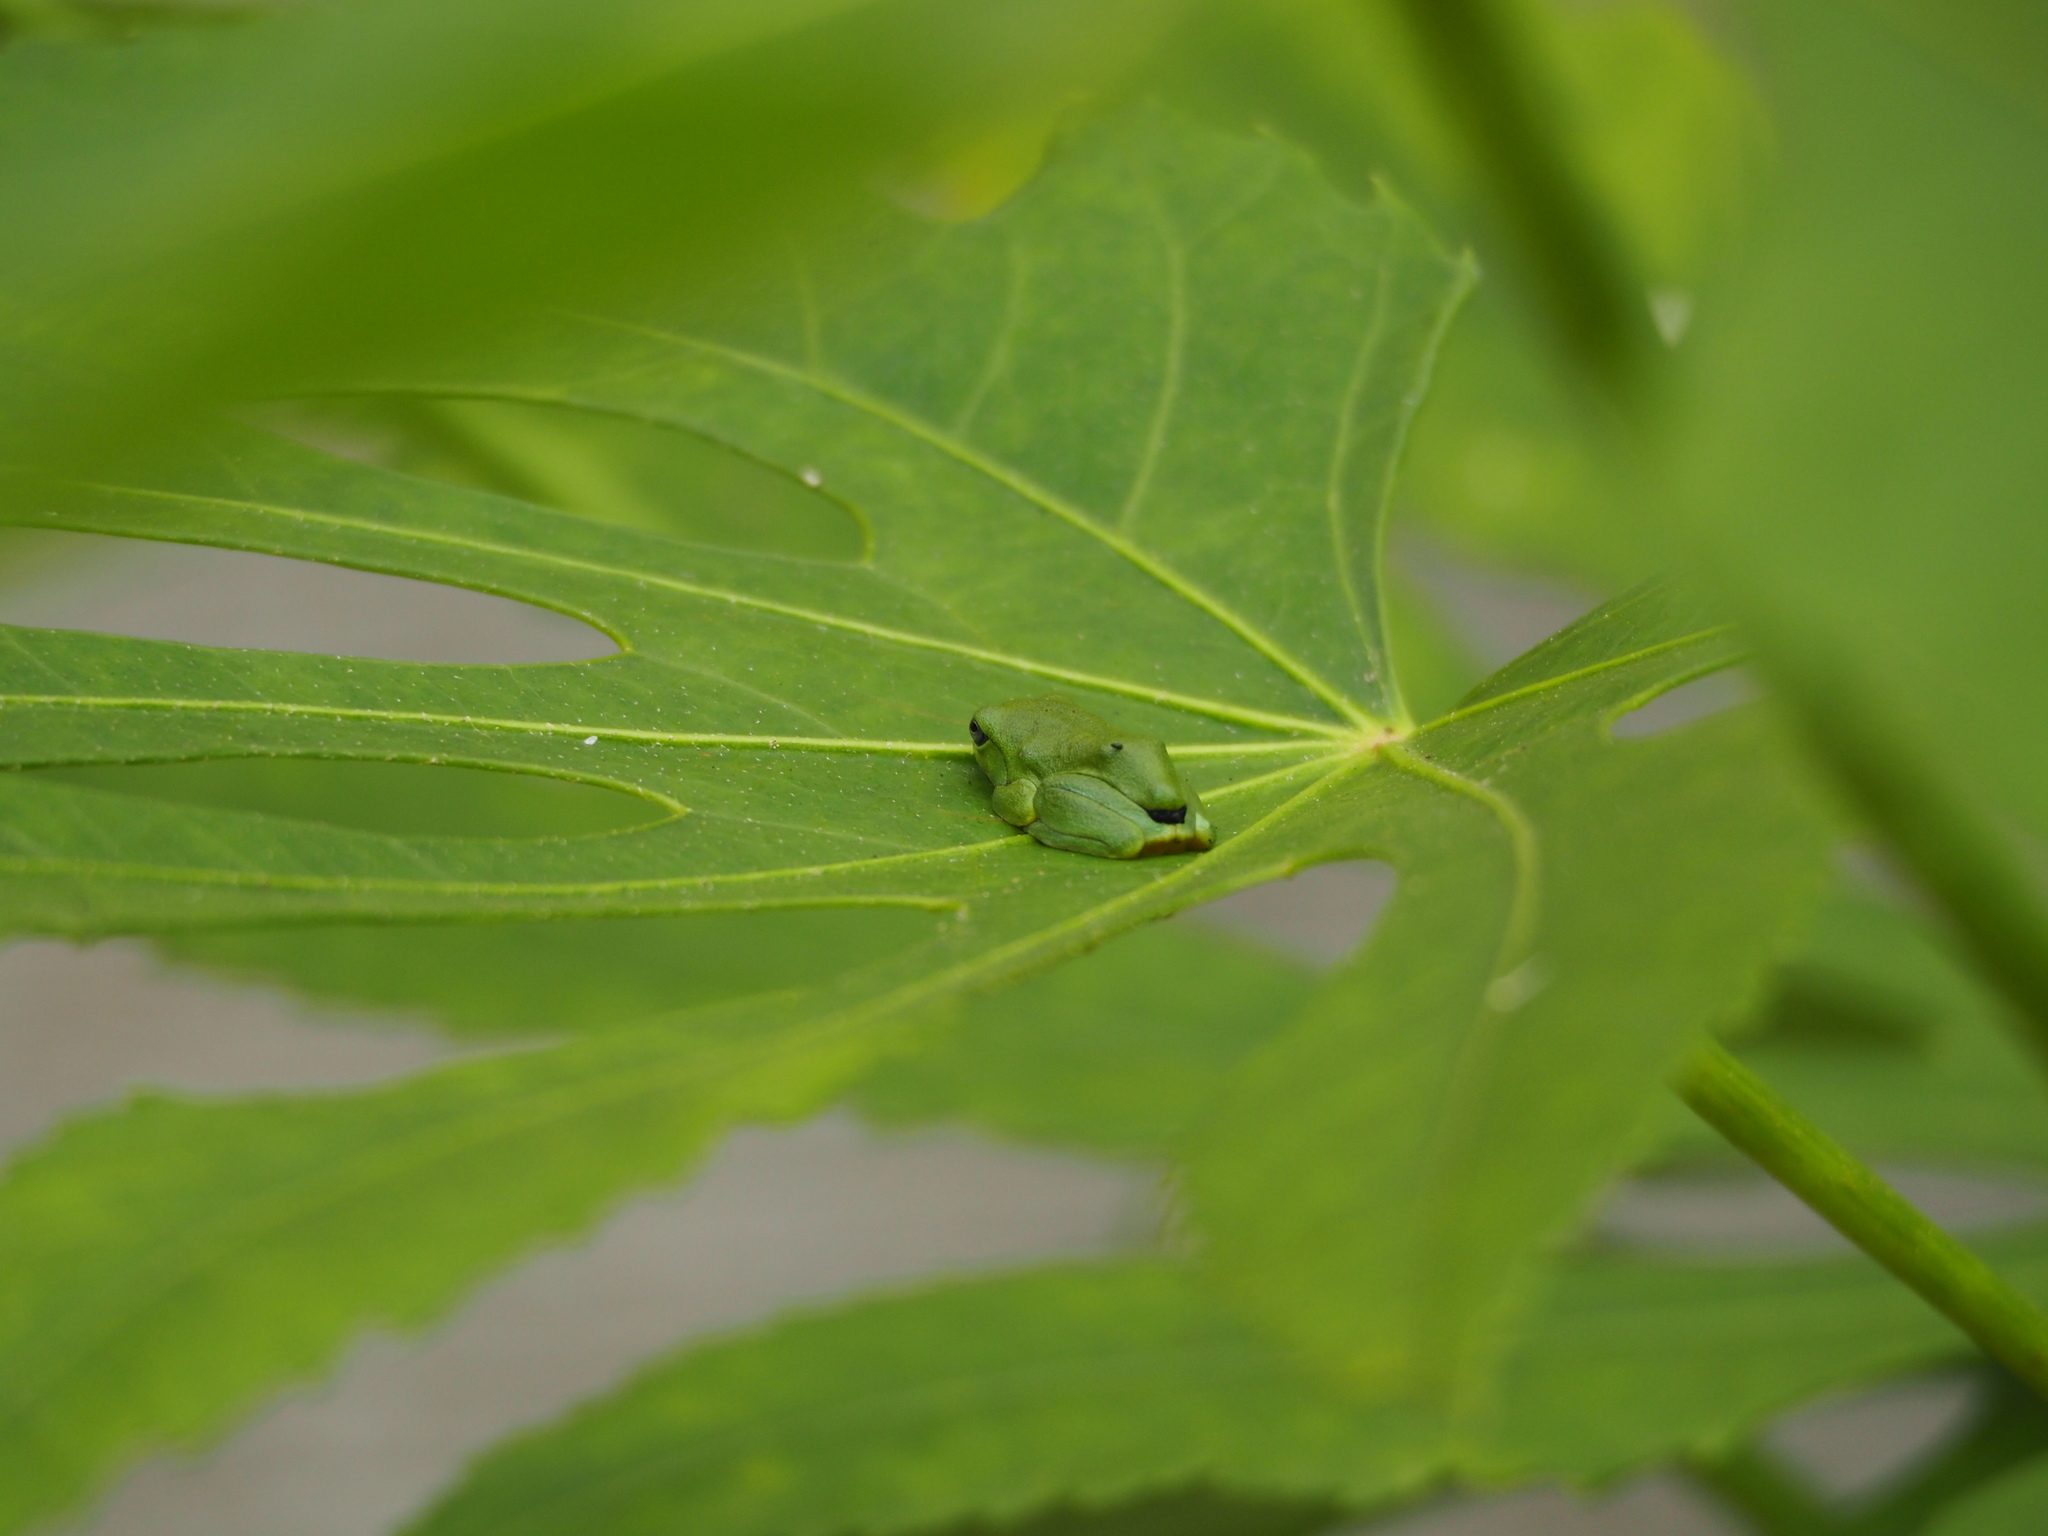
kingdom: Animalia
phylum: Chordata
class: Amphibia
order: Anura
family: Rhacophoridae
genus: Zhangixalus
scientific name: Zhangixalus moltrechti
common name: Moltrecht's treefrog
